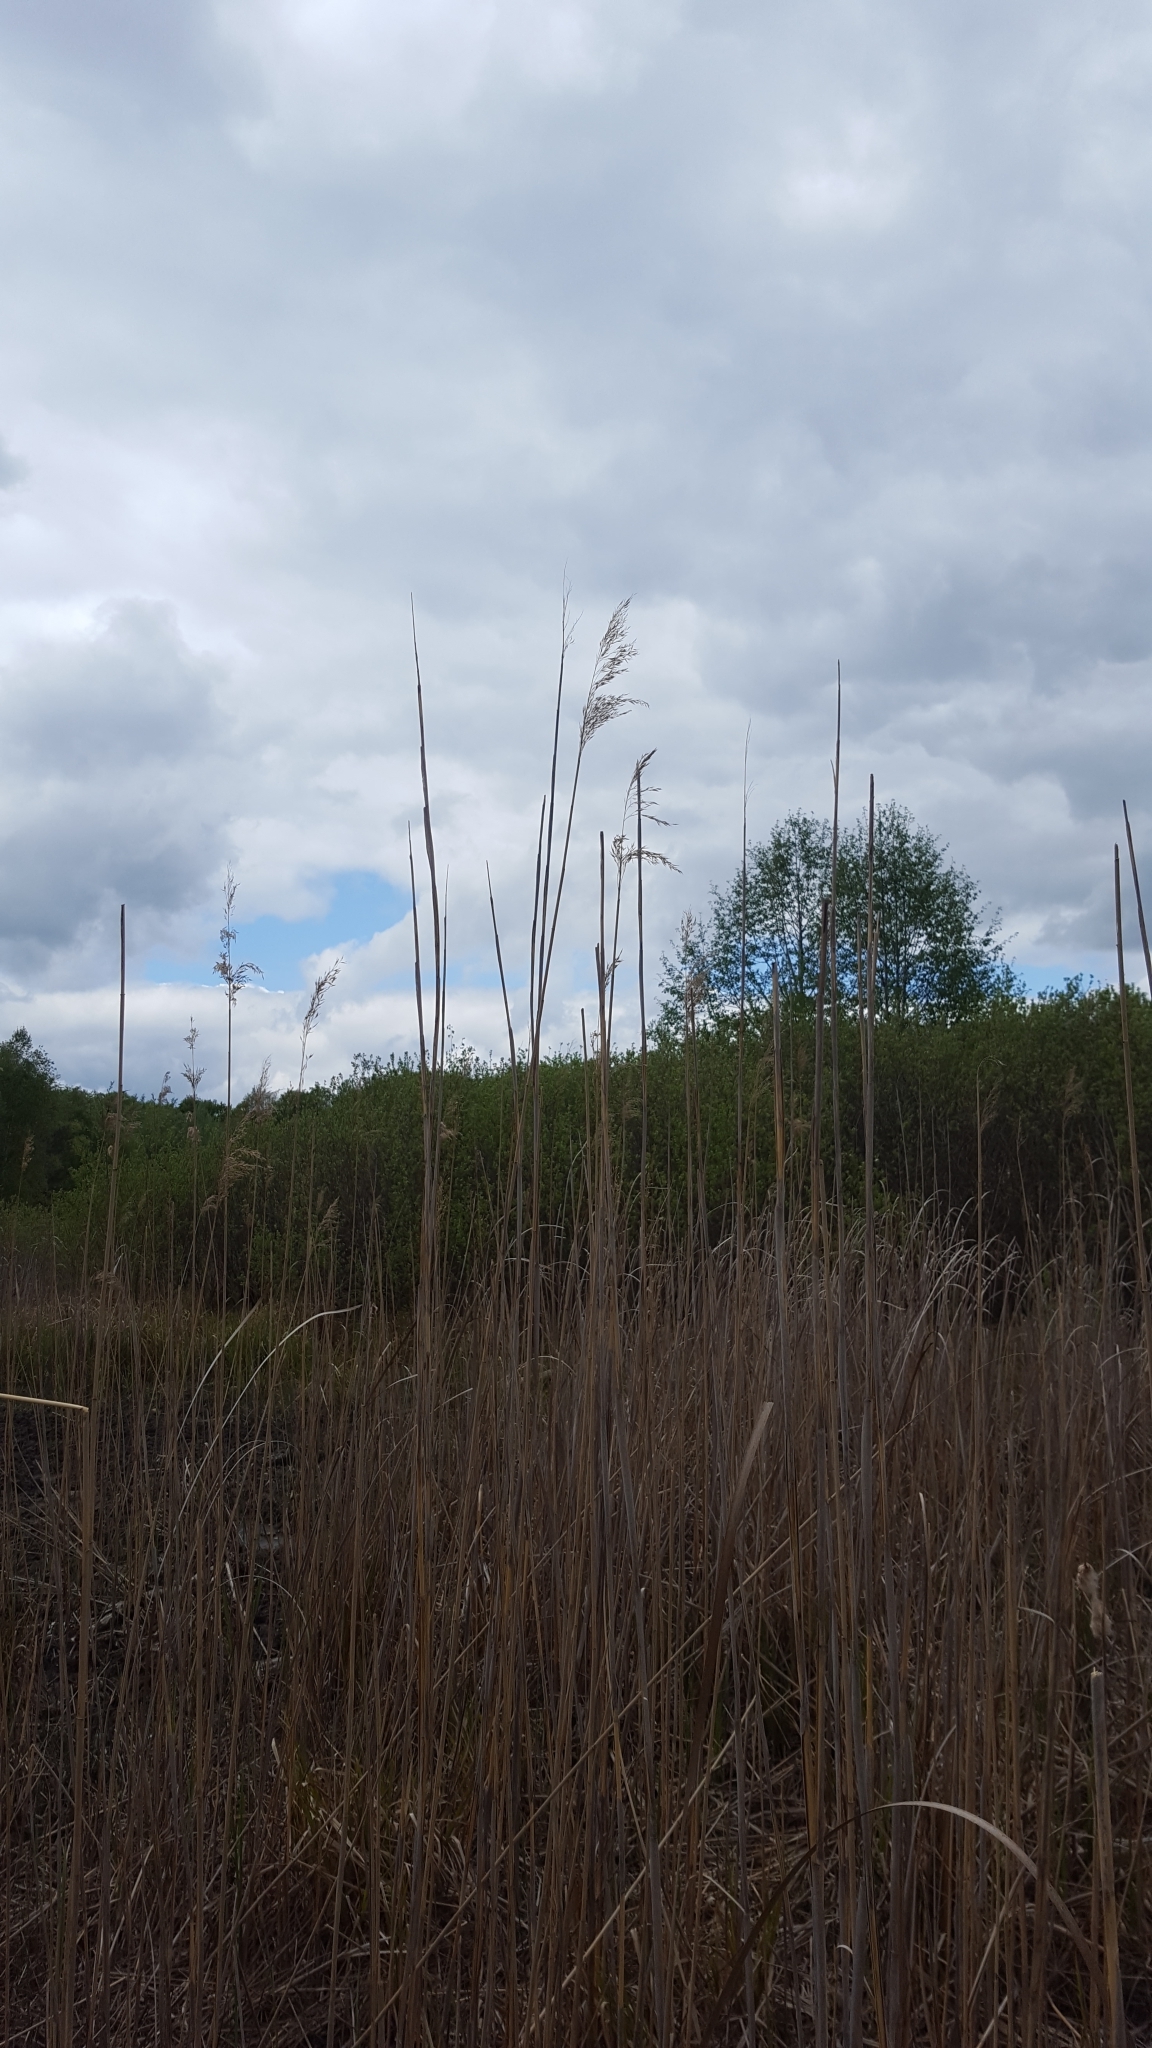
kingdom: Plantae
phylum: Tracheophyta
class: Liliopsida
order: Poales
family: Poaceae
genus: Phragmites
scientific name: Phragmites australis
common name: Common reed
